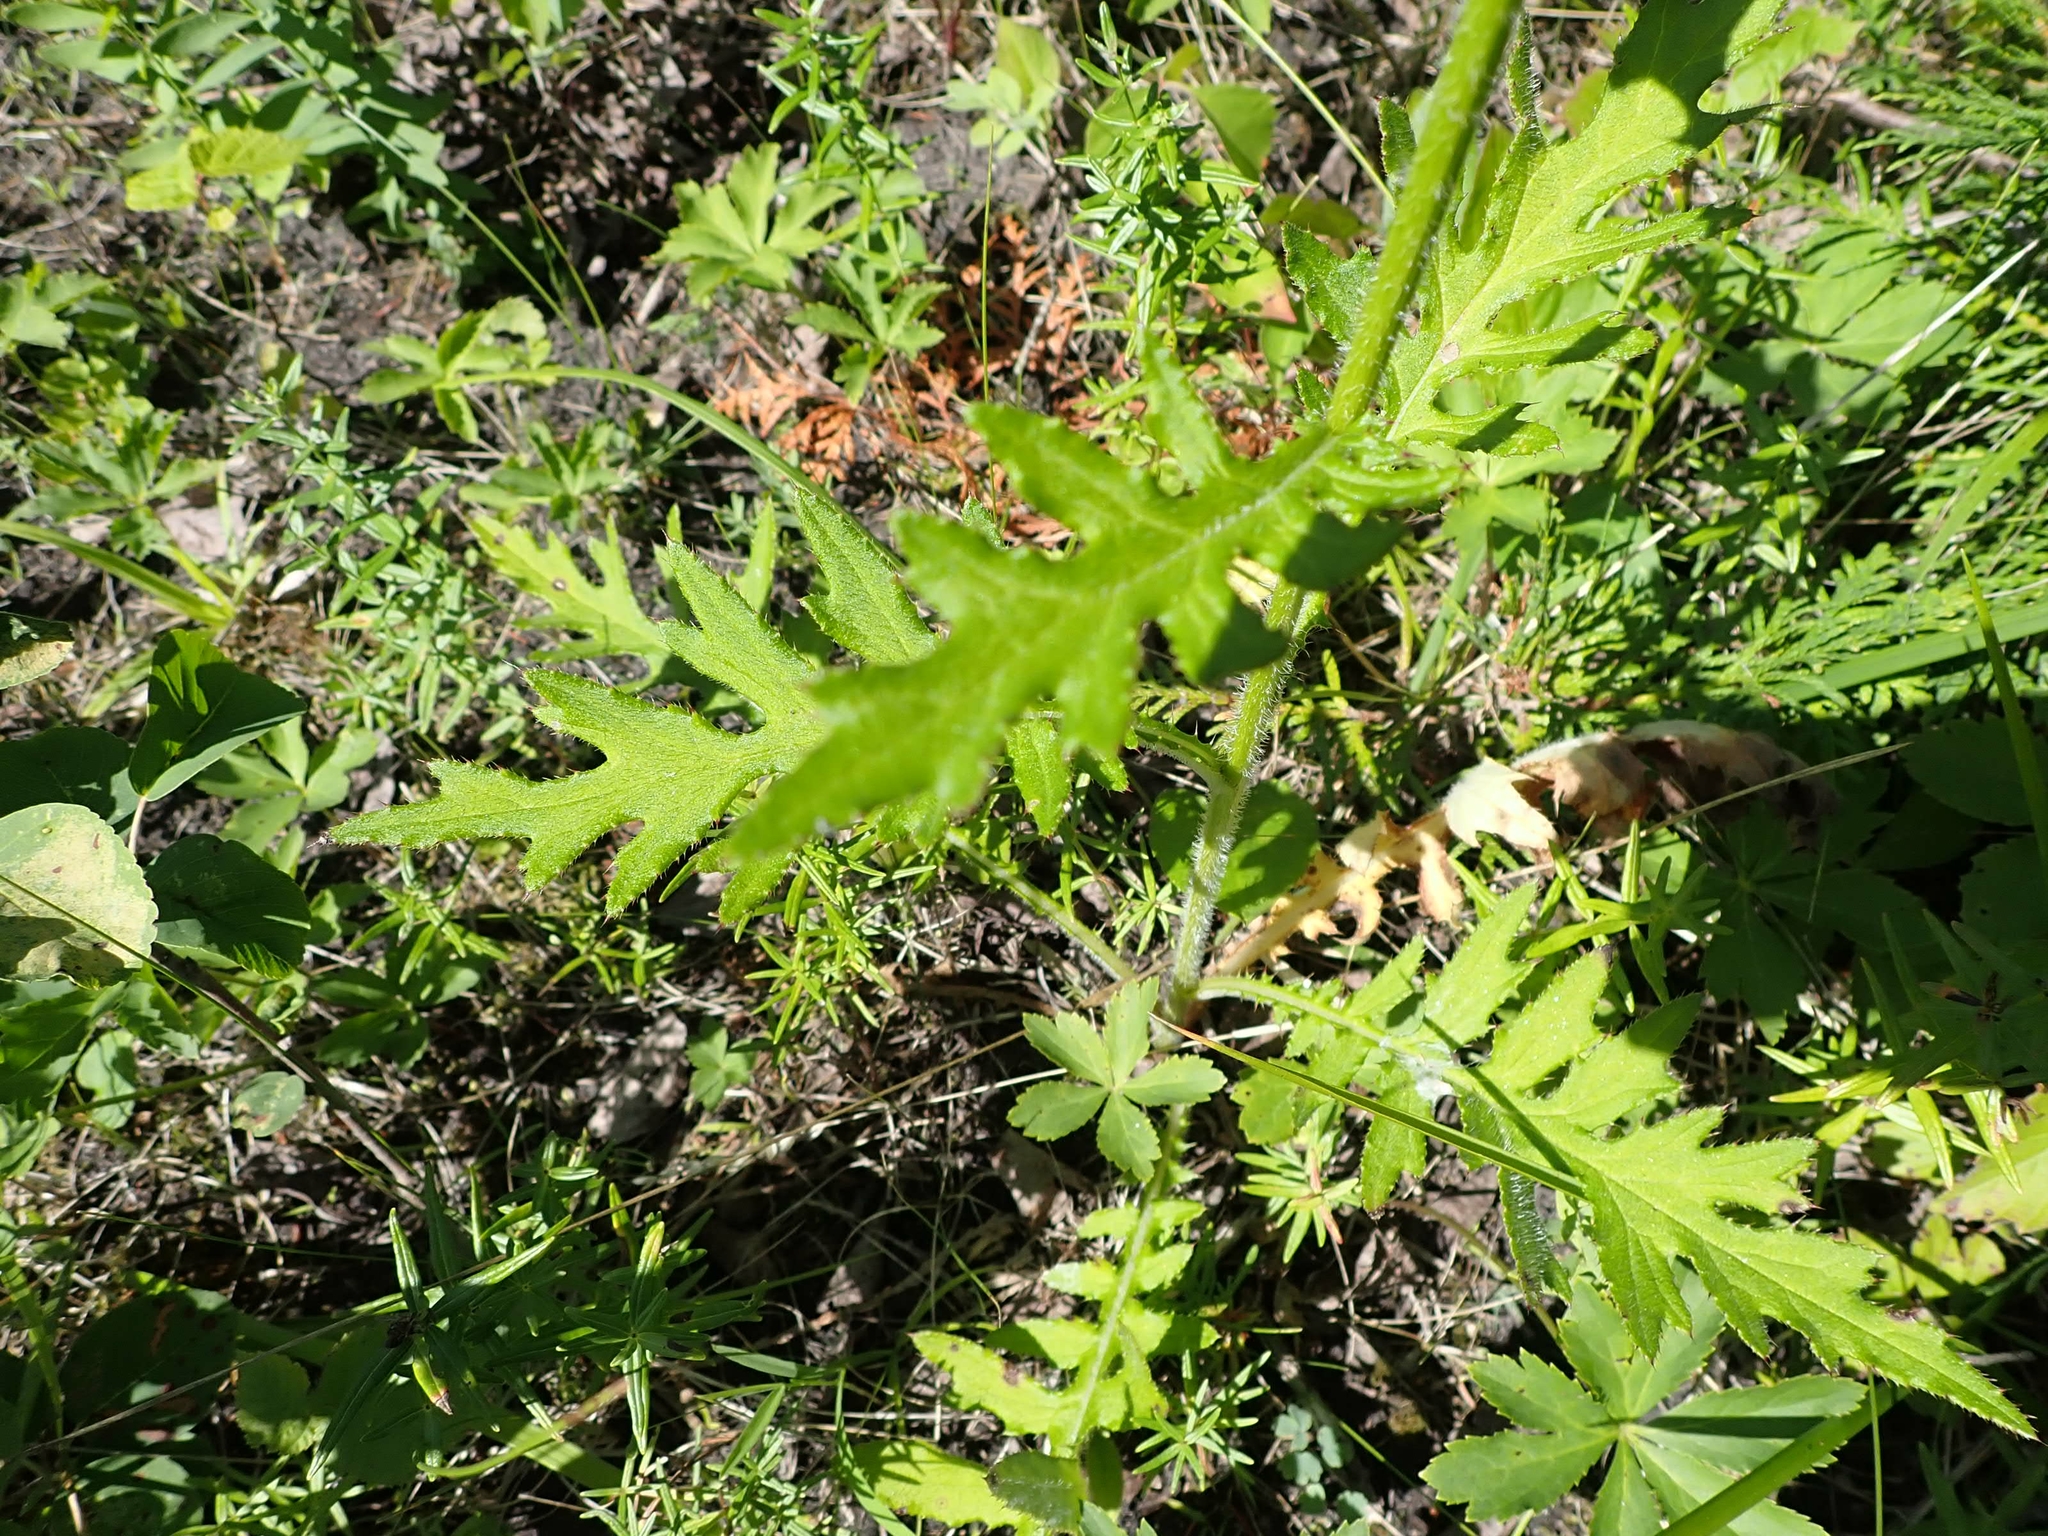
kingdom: Plantae
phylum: Tracheophyta
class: Magnoliopsida
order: Asterales
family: Asteraceae
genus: Cirsium
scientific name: Cirsium muticum
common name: Dunce-nettle
